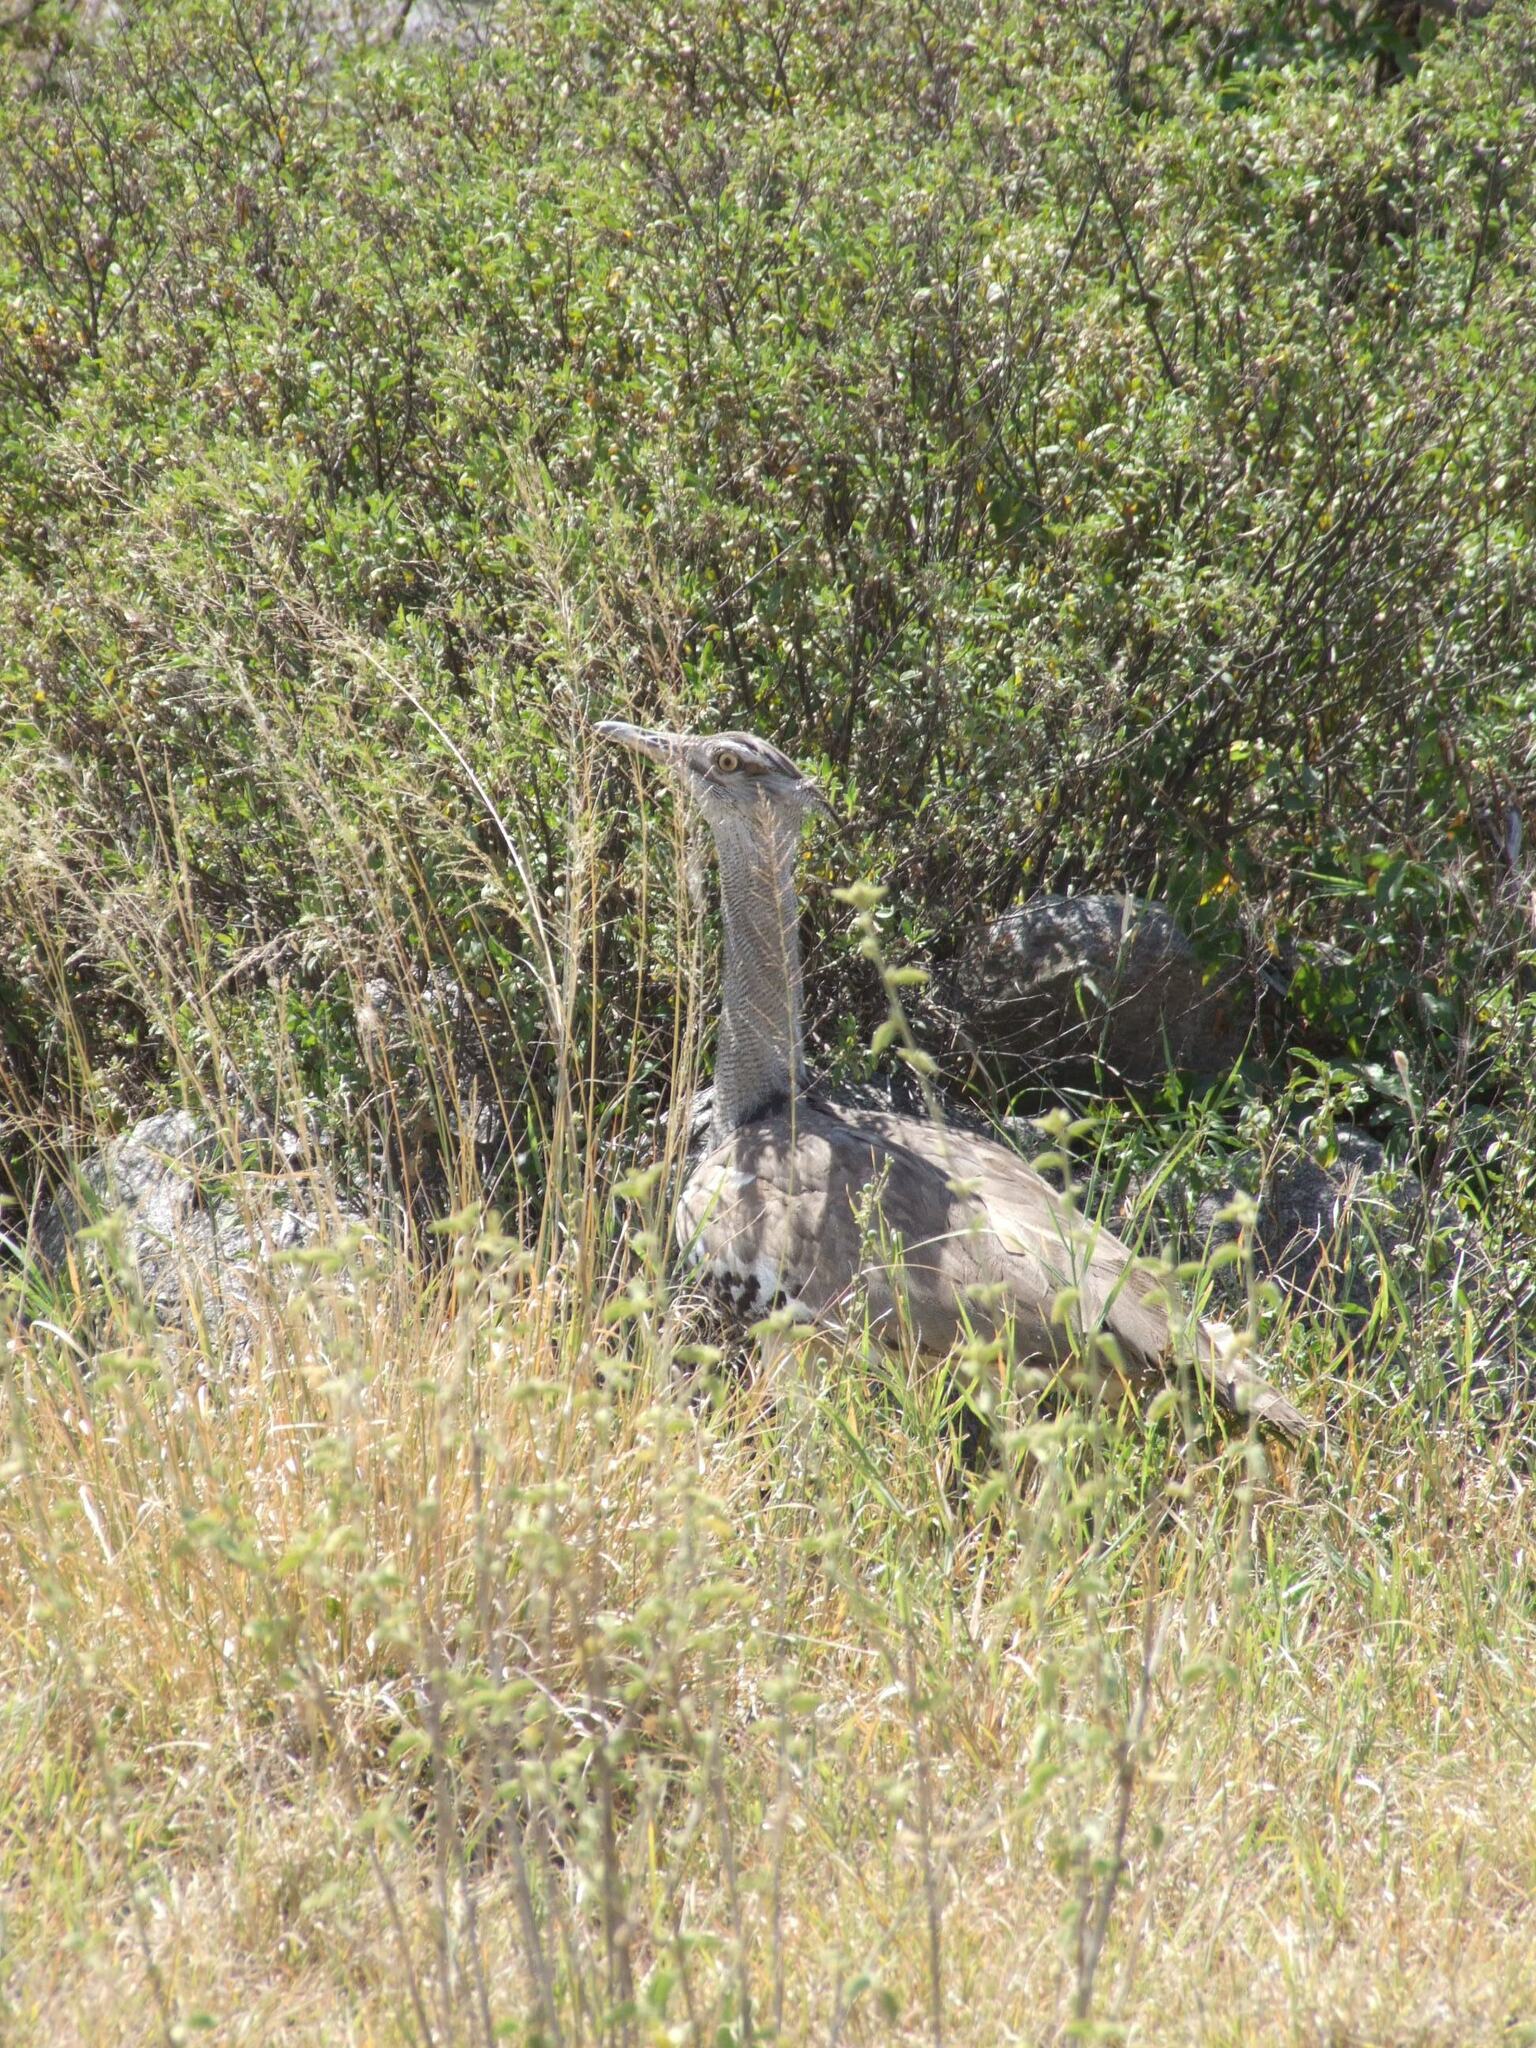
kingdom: Animalia
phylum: Chordata
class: Aves
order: Otidiformes
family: Otididae
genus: Ardeotis
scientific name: Ardeotis kori
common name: Kori bustard
